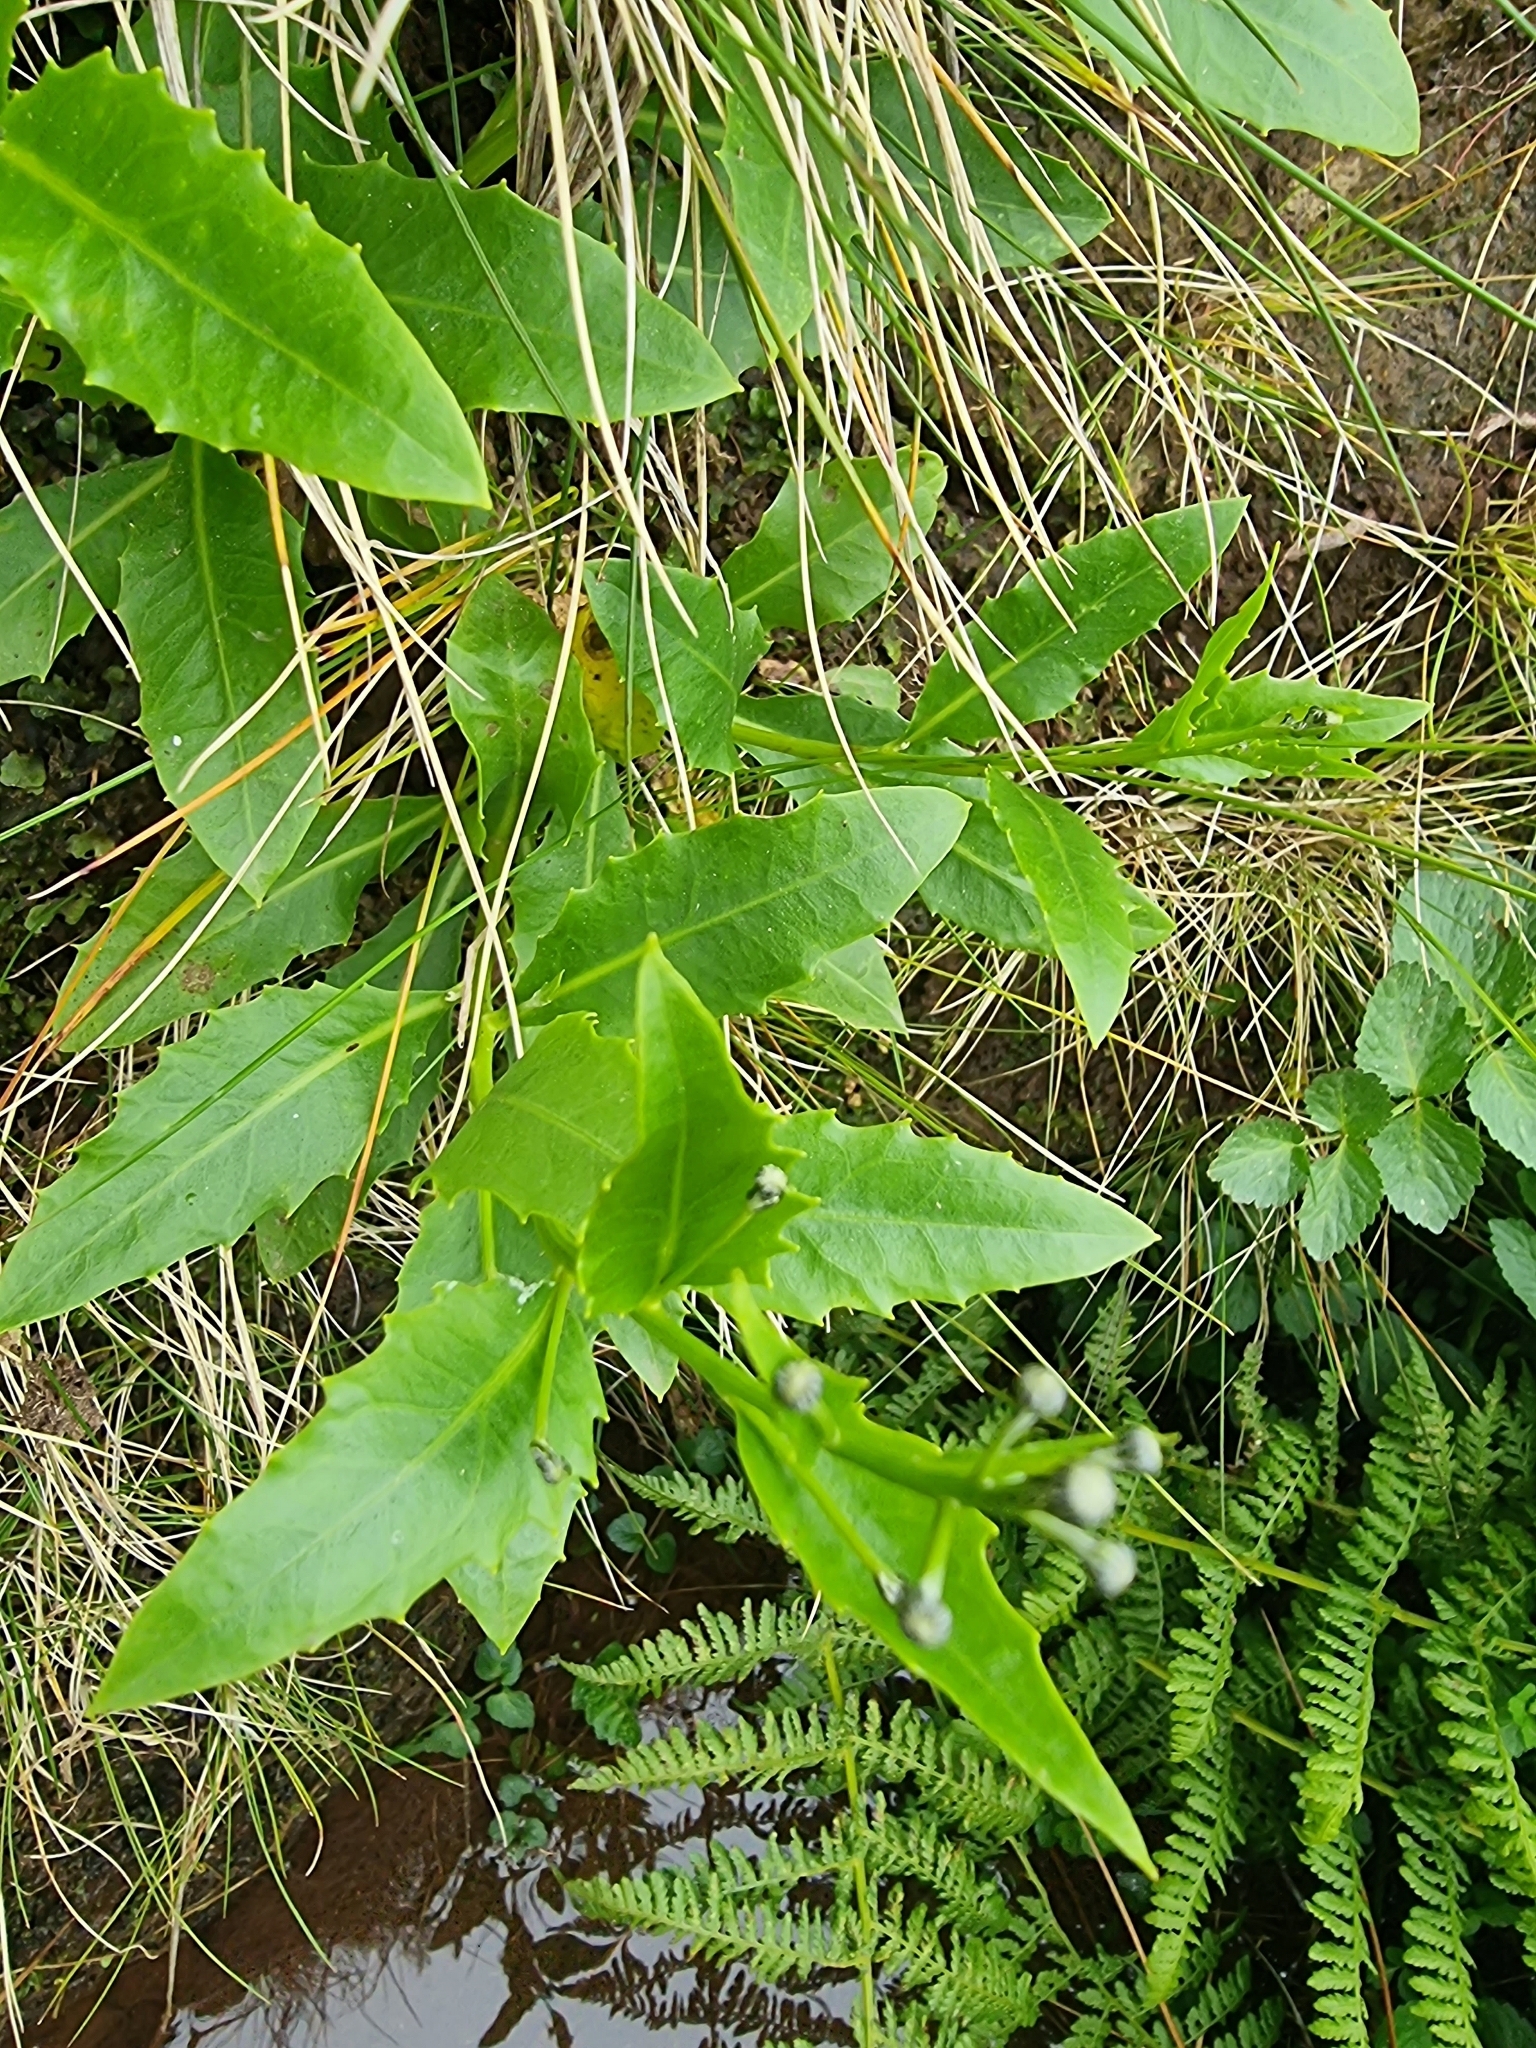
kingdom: Plantae
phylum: Tracheophyta
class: Magnoliopsida
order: Asterales
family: Asteraceae
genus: Tolpis
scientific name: Tolpis macrorhiza
